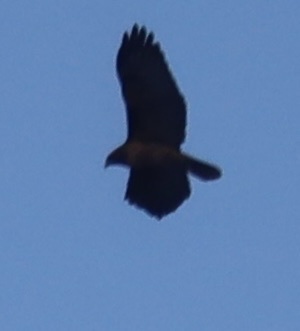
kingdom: Animalia
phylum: Chordata
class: Aves
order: Accipitriformes
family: Accipitridae
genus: Buteo
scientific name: Buteo jamaicensis
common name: Red-tailed hawk
